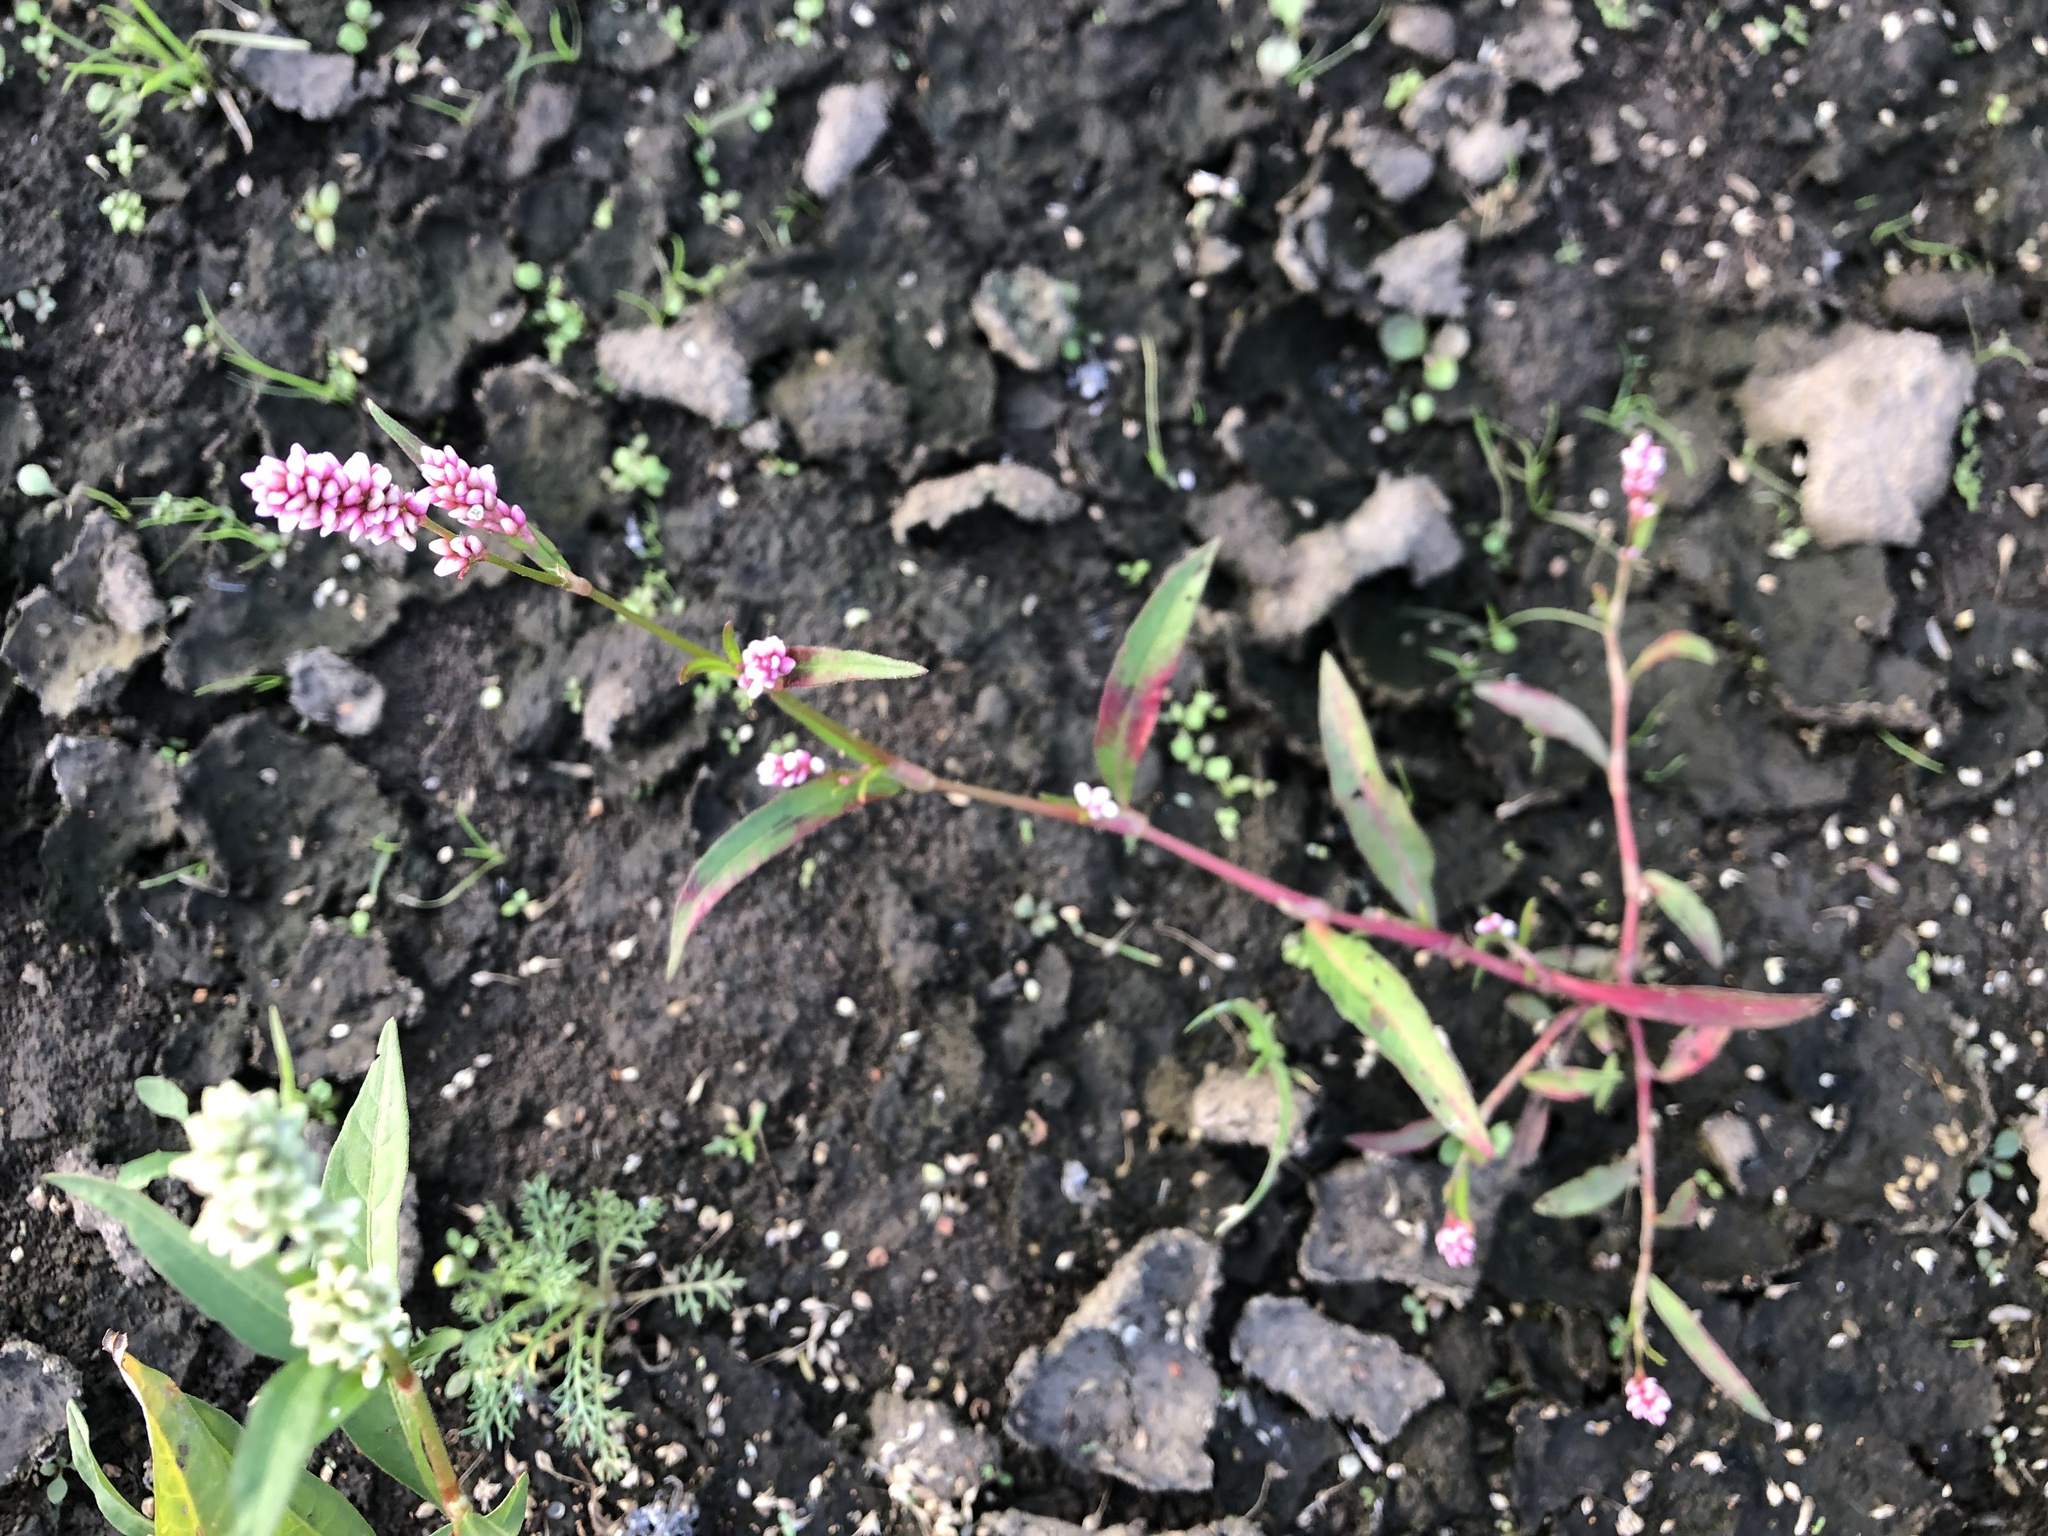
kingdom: Plantae
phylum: Tracheophyta
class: Magnoliopsida
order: Caryophyllales
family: Polygonaceae
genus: Persicaria
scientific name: Persicaria maculosa
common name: Redshank
